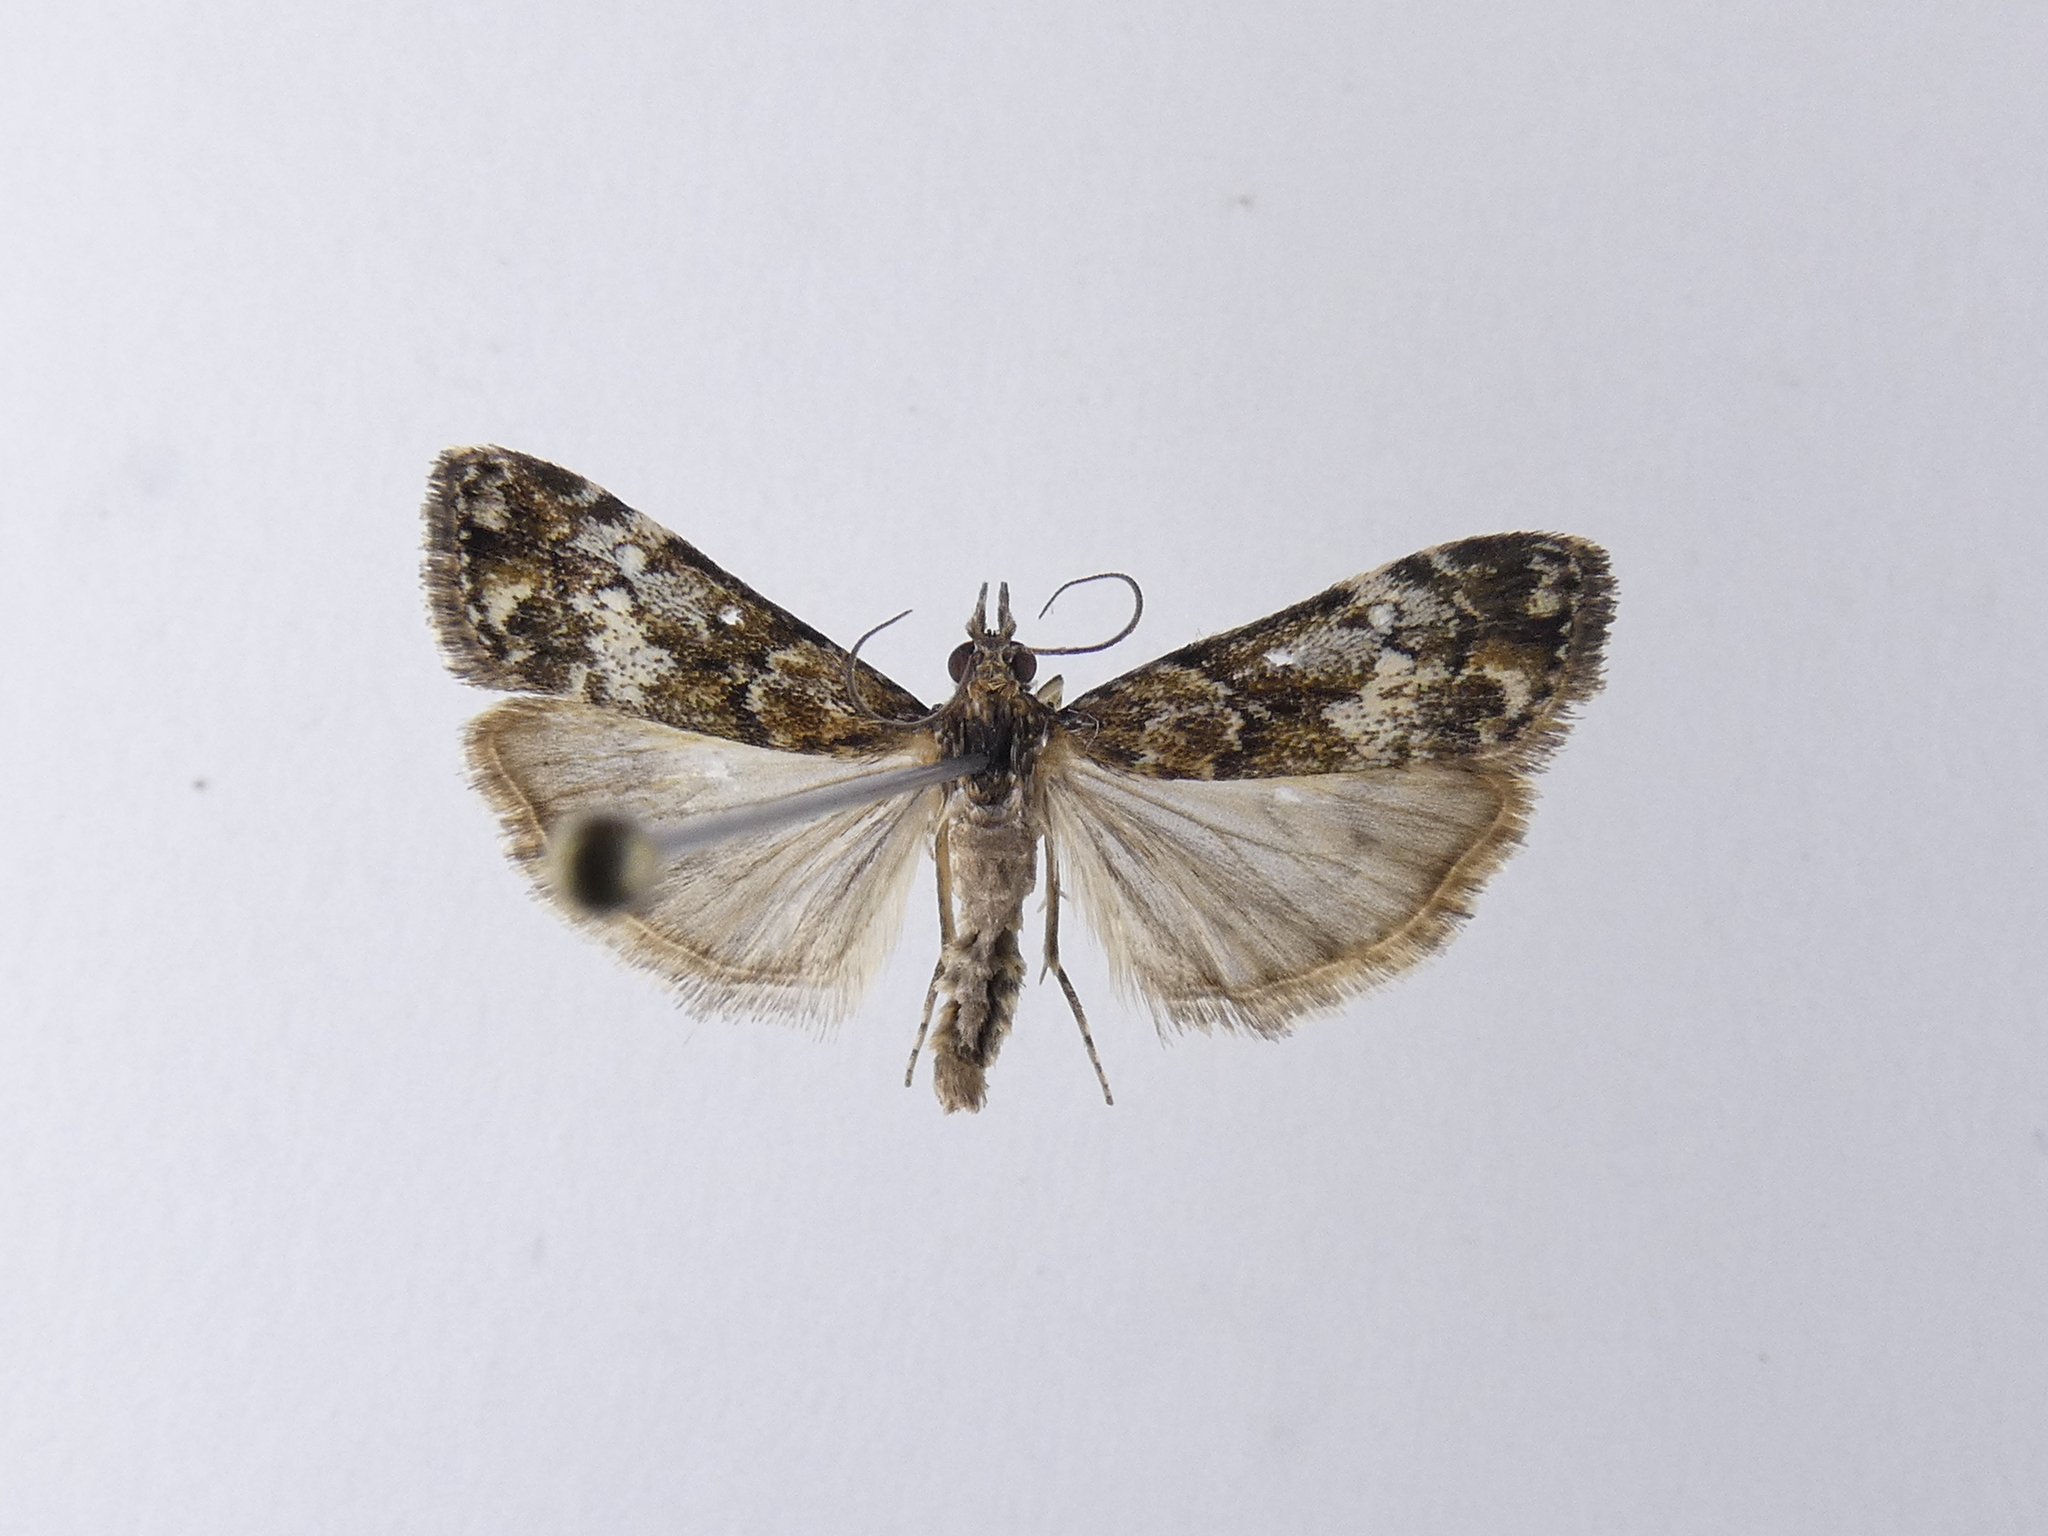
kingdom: Animalia
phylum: Arthropoda
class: Insecta
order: Lepidoptera
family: Crambidae
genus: Eudonia
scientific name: Eudonia minualis
